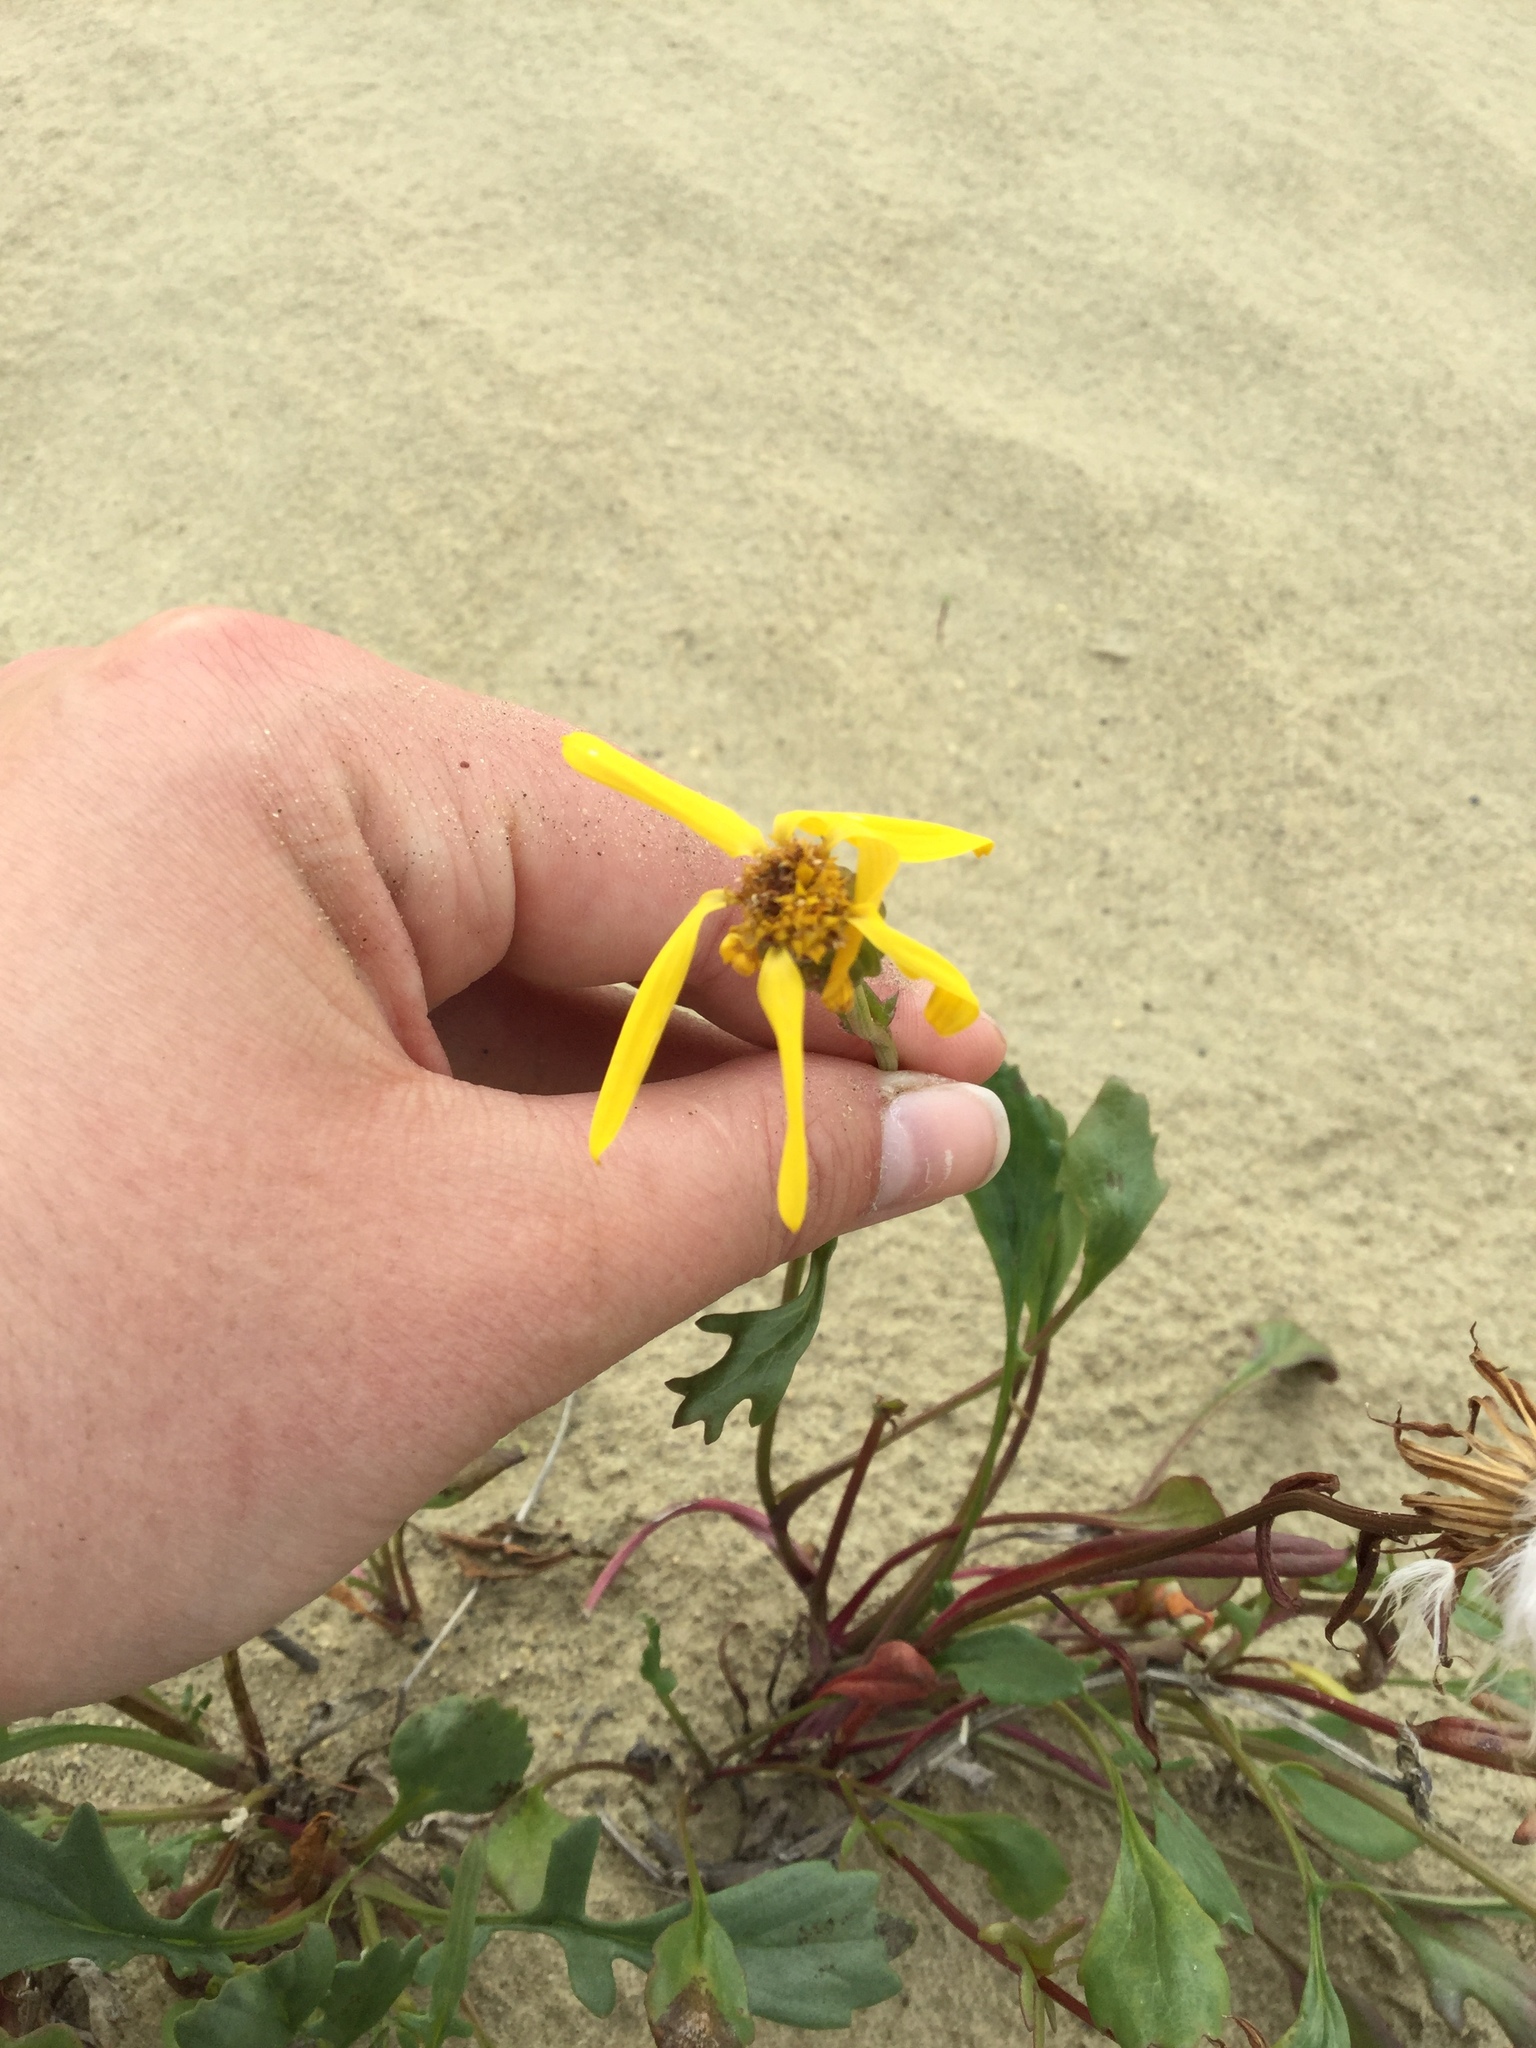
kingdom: Plantae
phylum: Tracheophyta
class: Magnoliopsida
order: Asterales
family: Asteraceae
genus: Packera
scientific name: Packera cymbalaria
